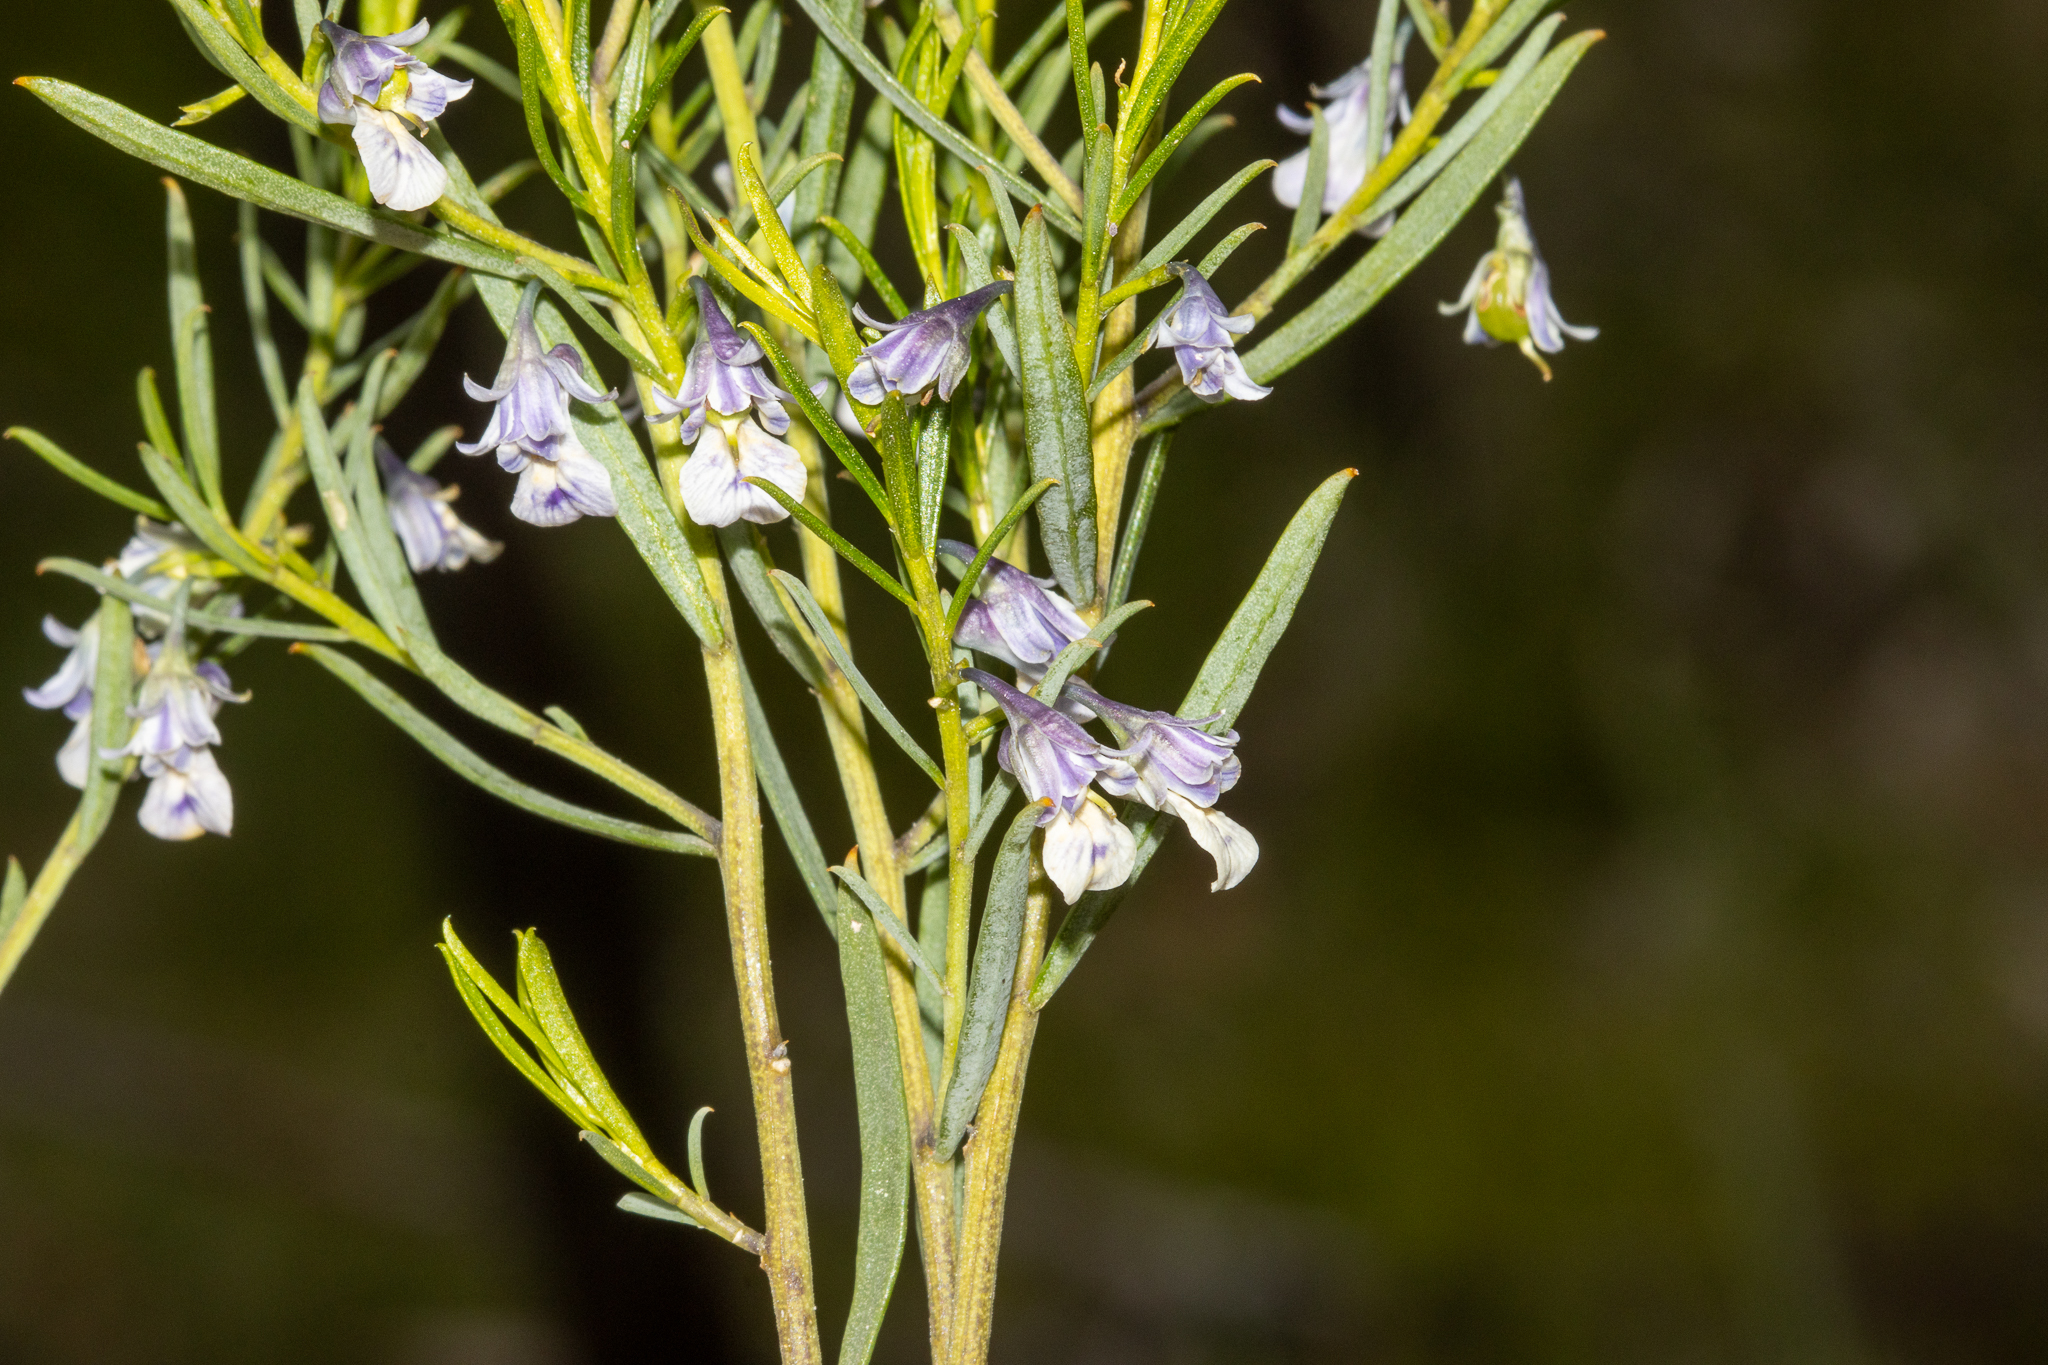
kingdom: Plantae
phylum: Tracheophyta
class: Magnoliopsida
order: Malpighiales
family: Violaceae
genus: Pigea
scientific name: Pigea floribunda
